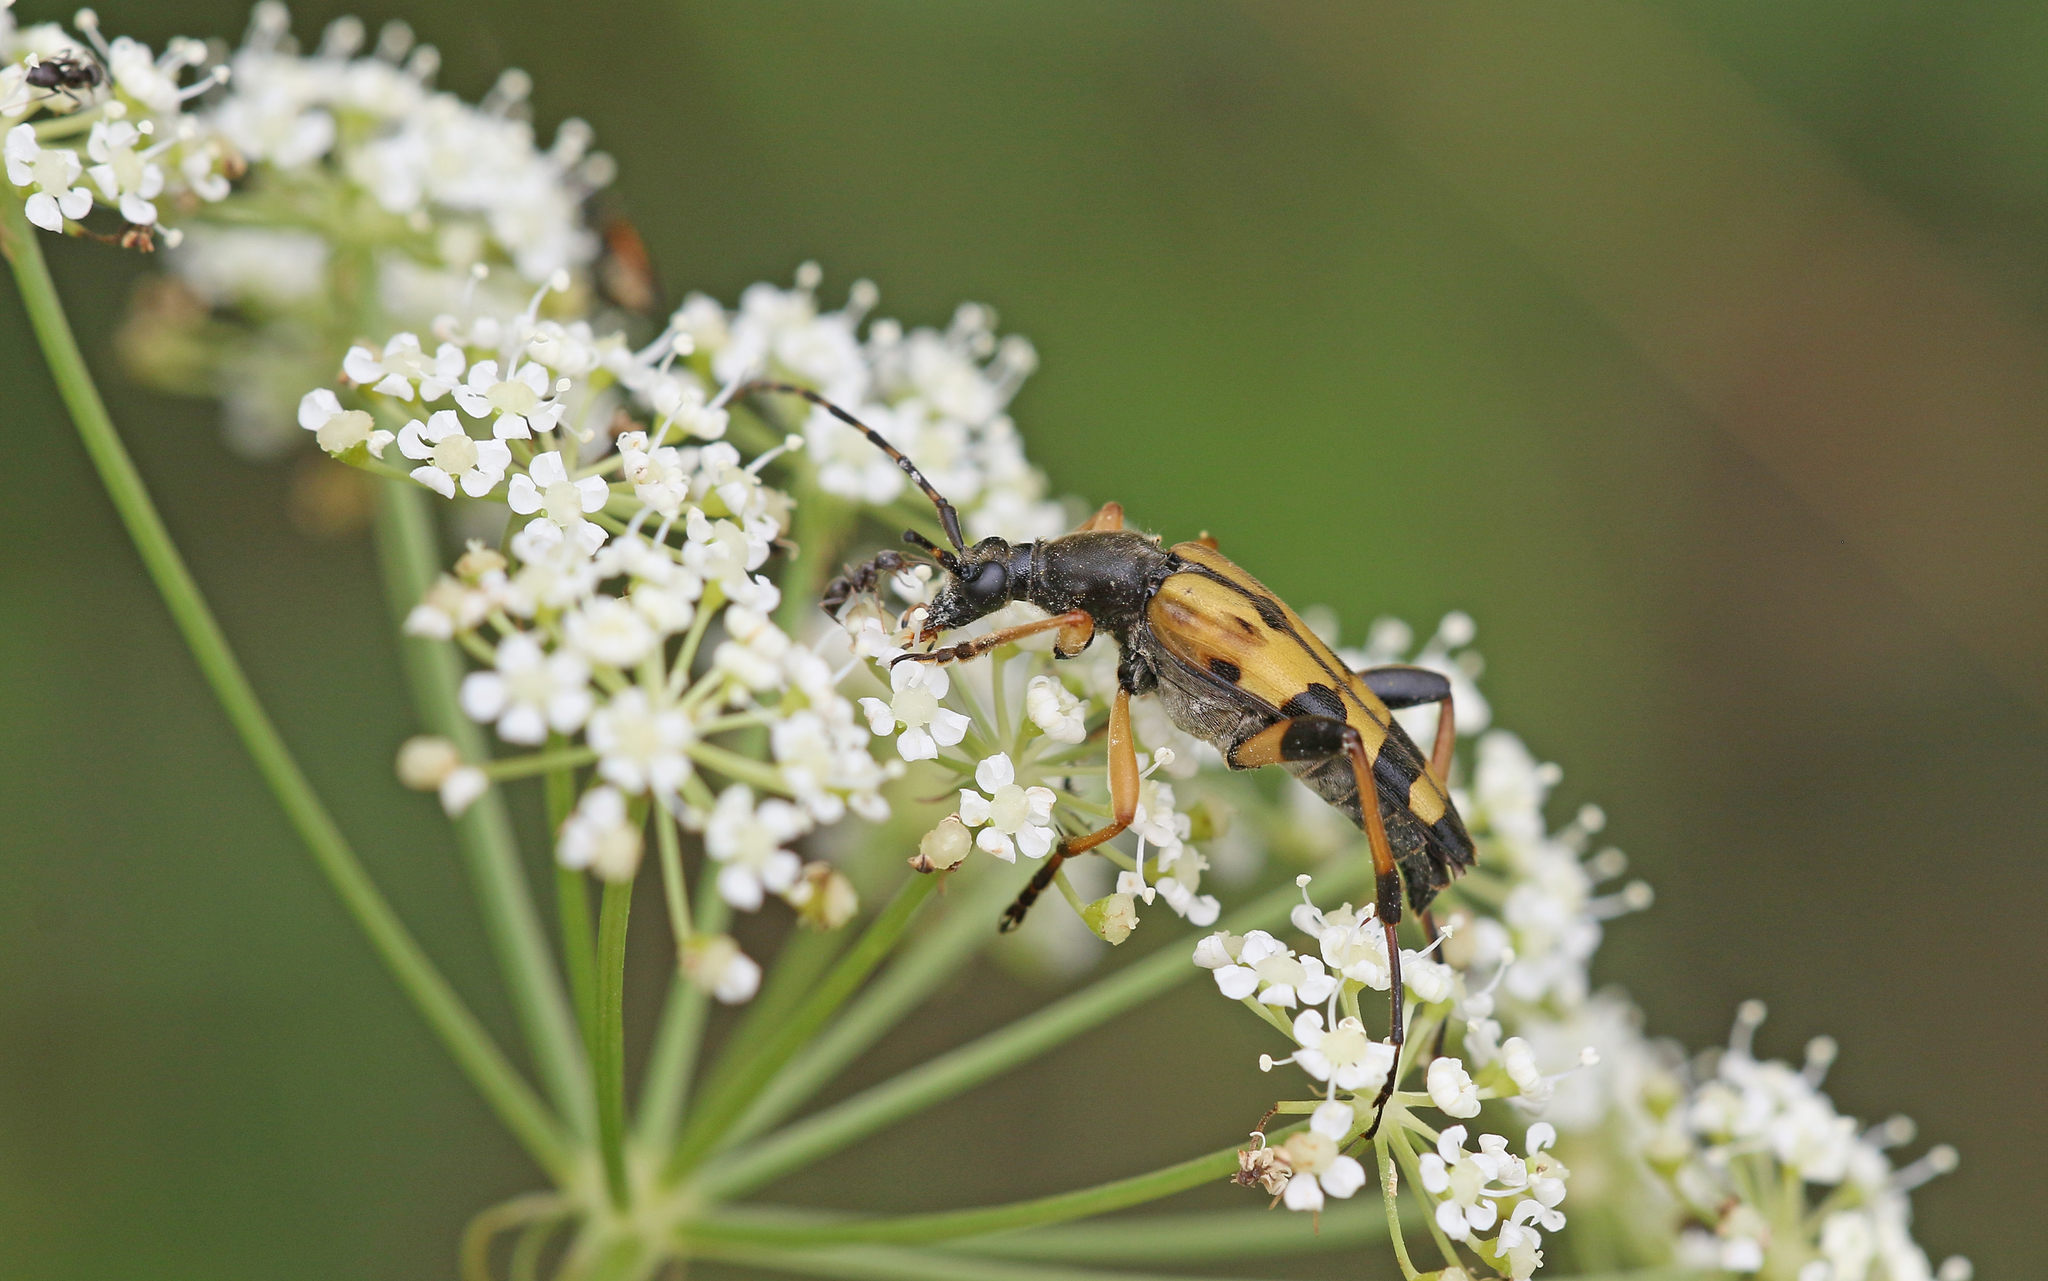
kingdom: Animalia
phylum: Arthropoda
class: Insecta
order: Coleoptera
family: Cerambycidae
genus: Rutpela
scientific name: Rutpela maculata
